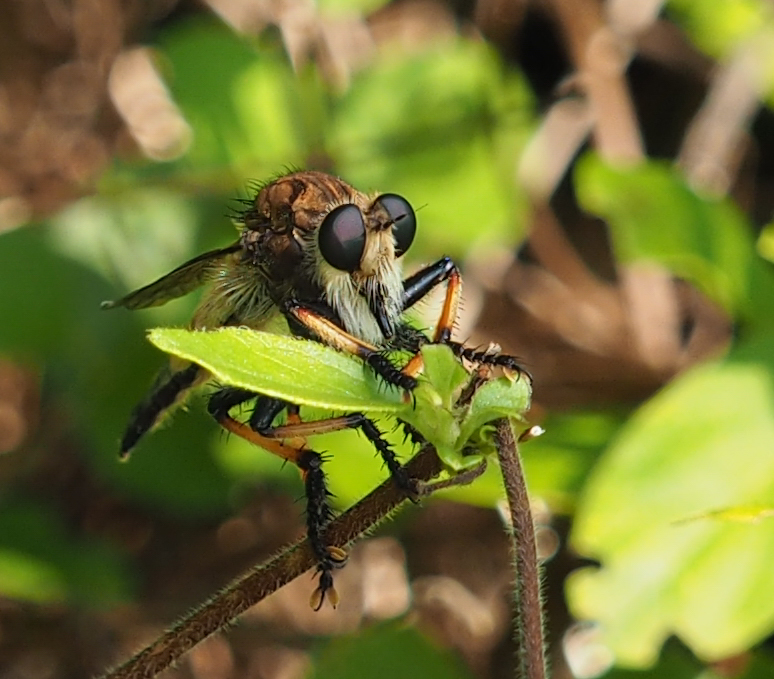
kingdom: Animalia
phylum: Arthropoda
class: Insecta
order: Diptera
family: Asilidae
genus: Promachus
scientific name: Promachus rufipes
